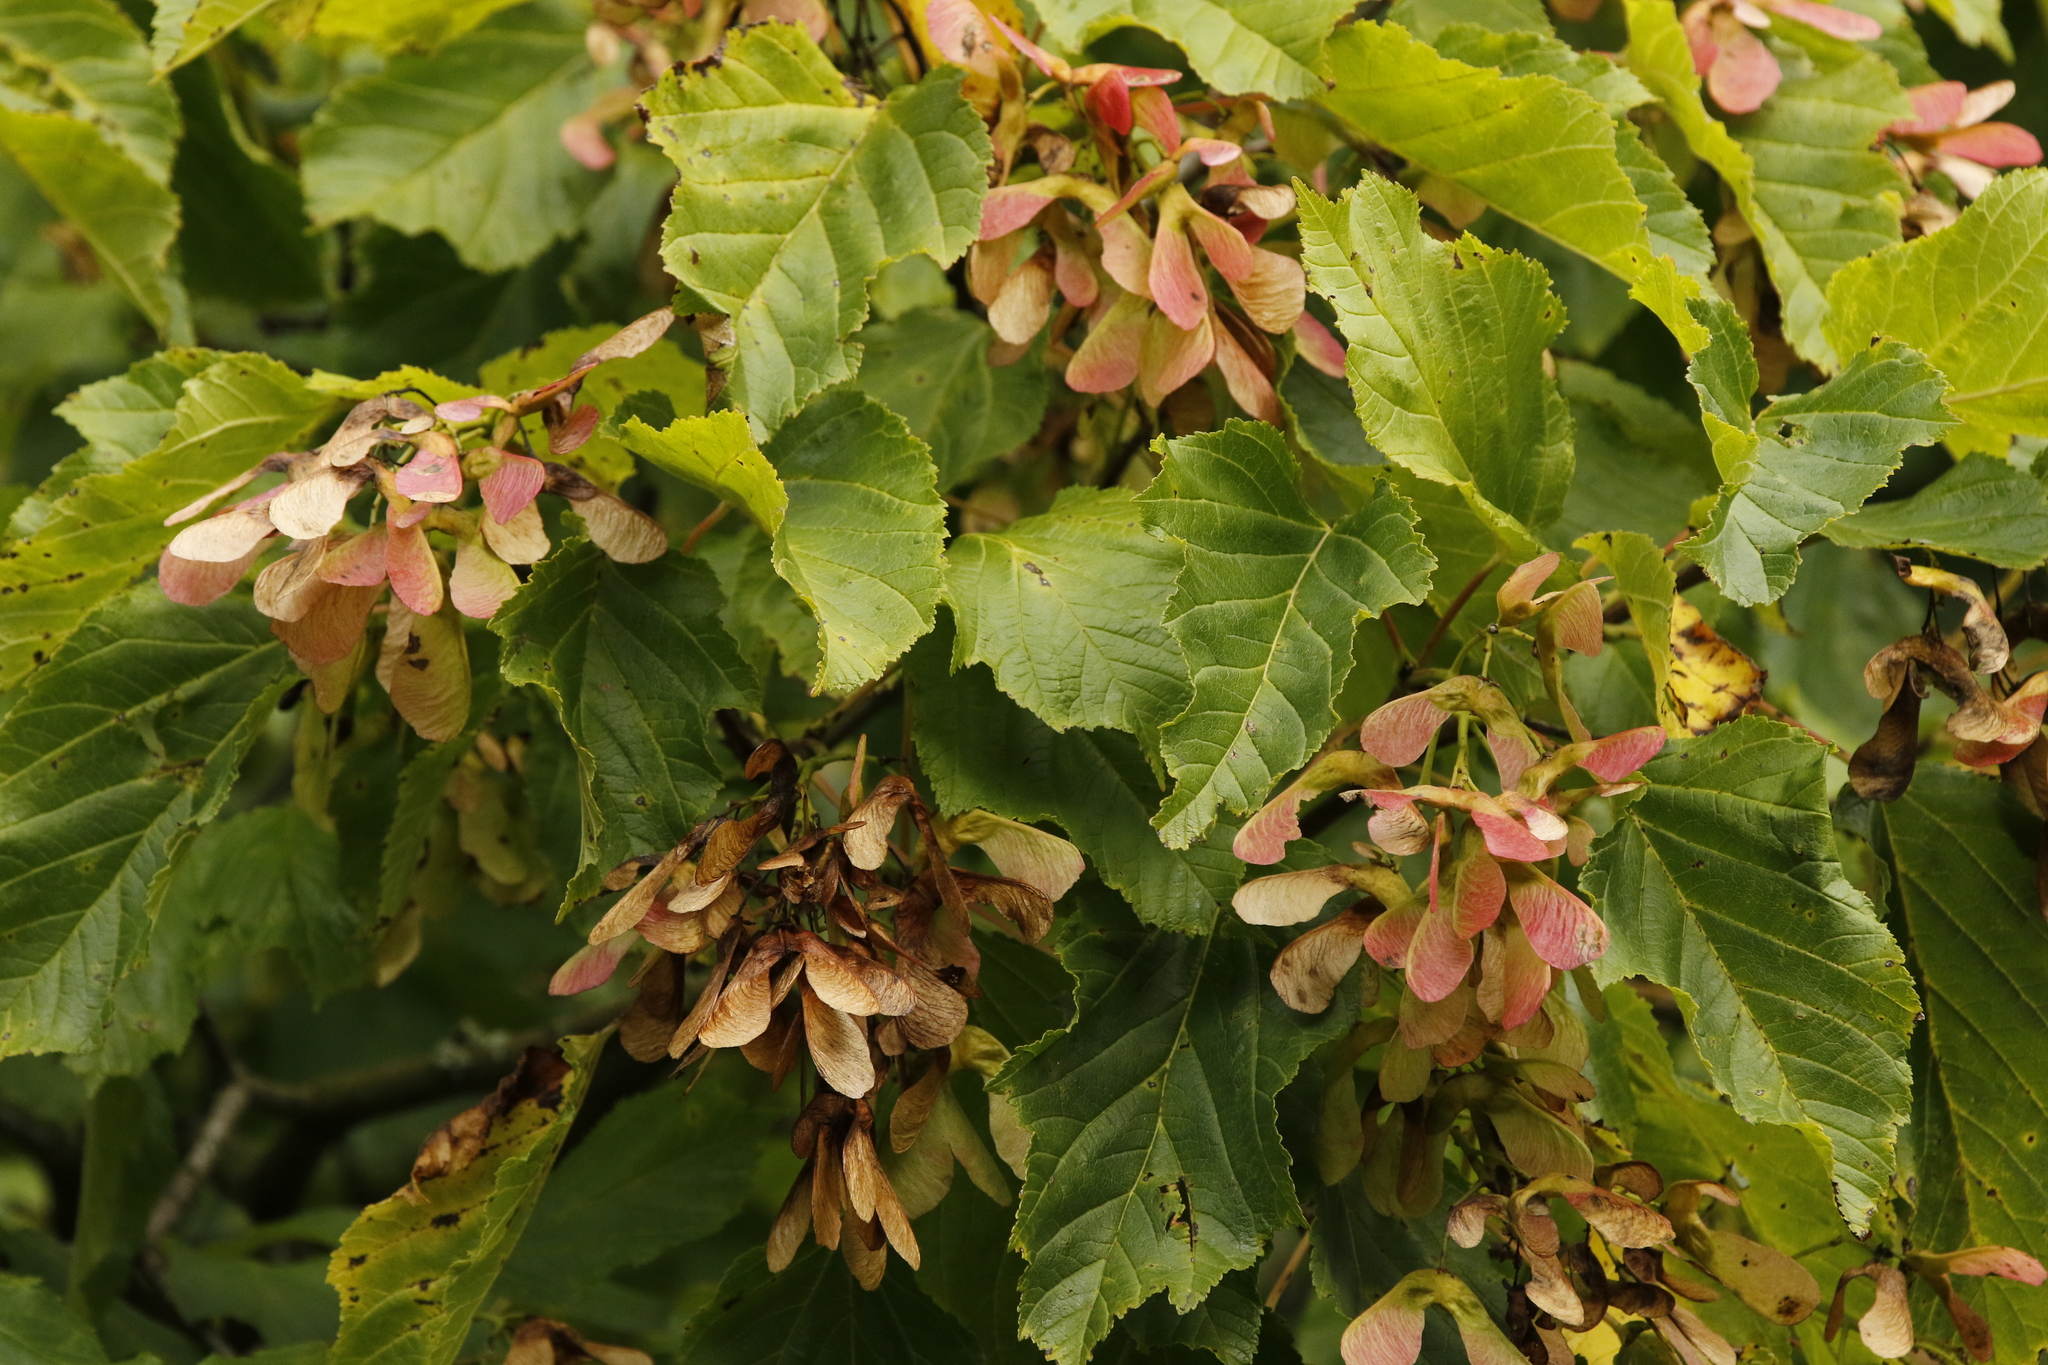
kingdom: Plantae
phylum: Tracheophyta
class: Magnoliopsida
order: Sapindales
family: Sapindaceae
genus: Acer
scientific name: Acer tataricum
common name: Tartar maple
